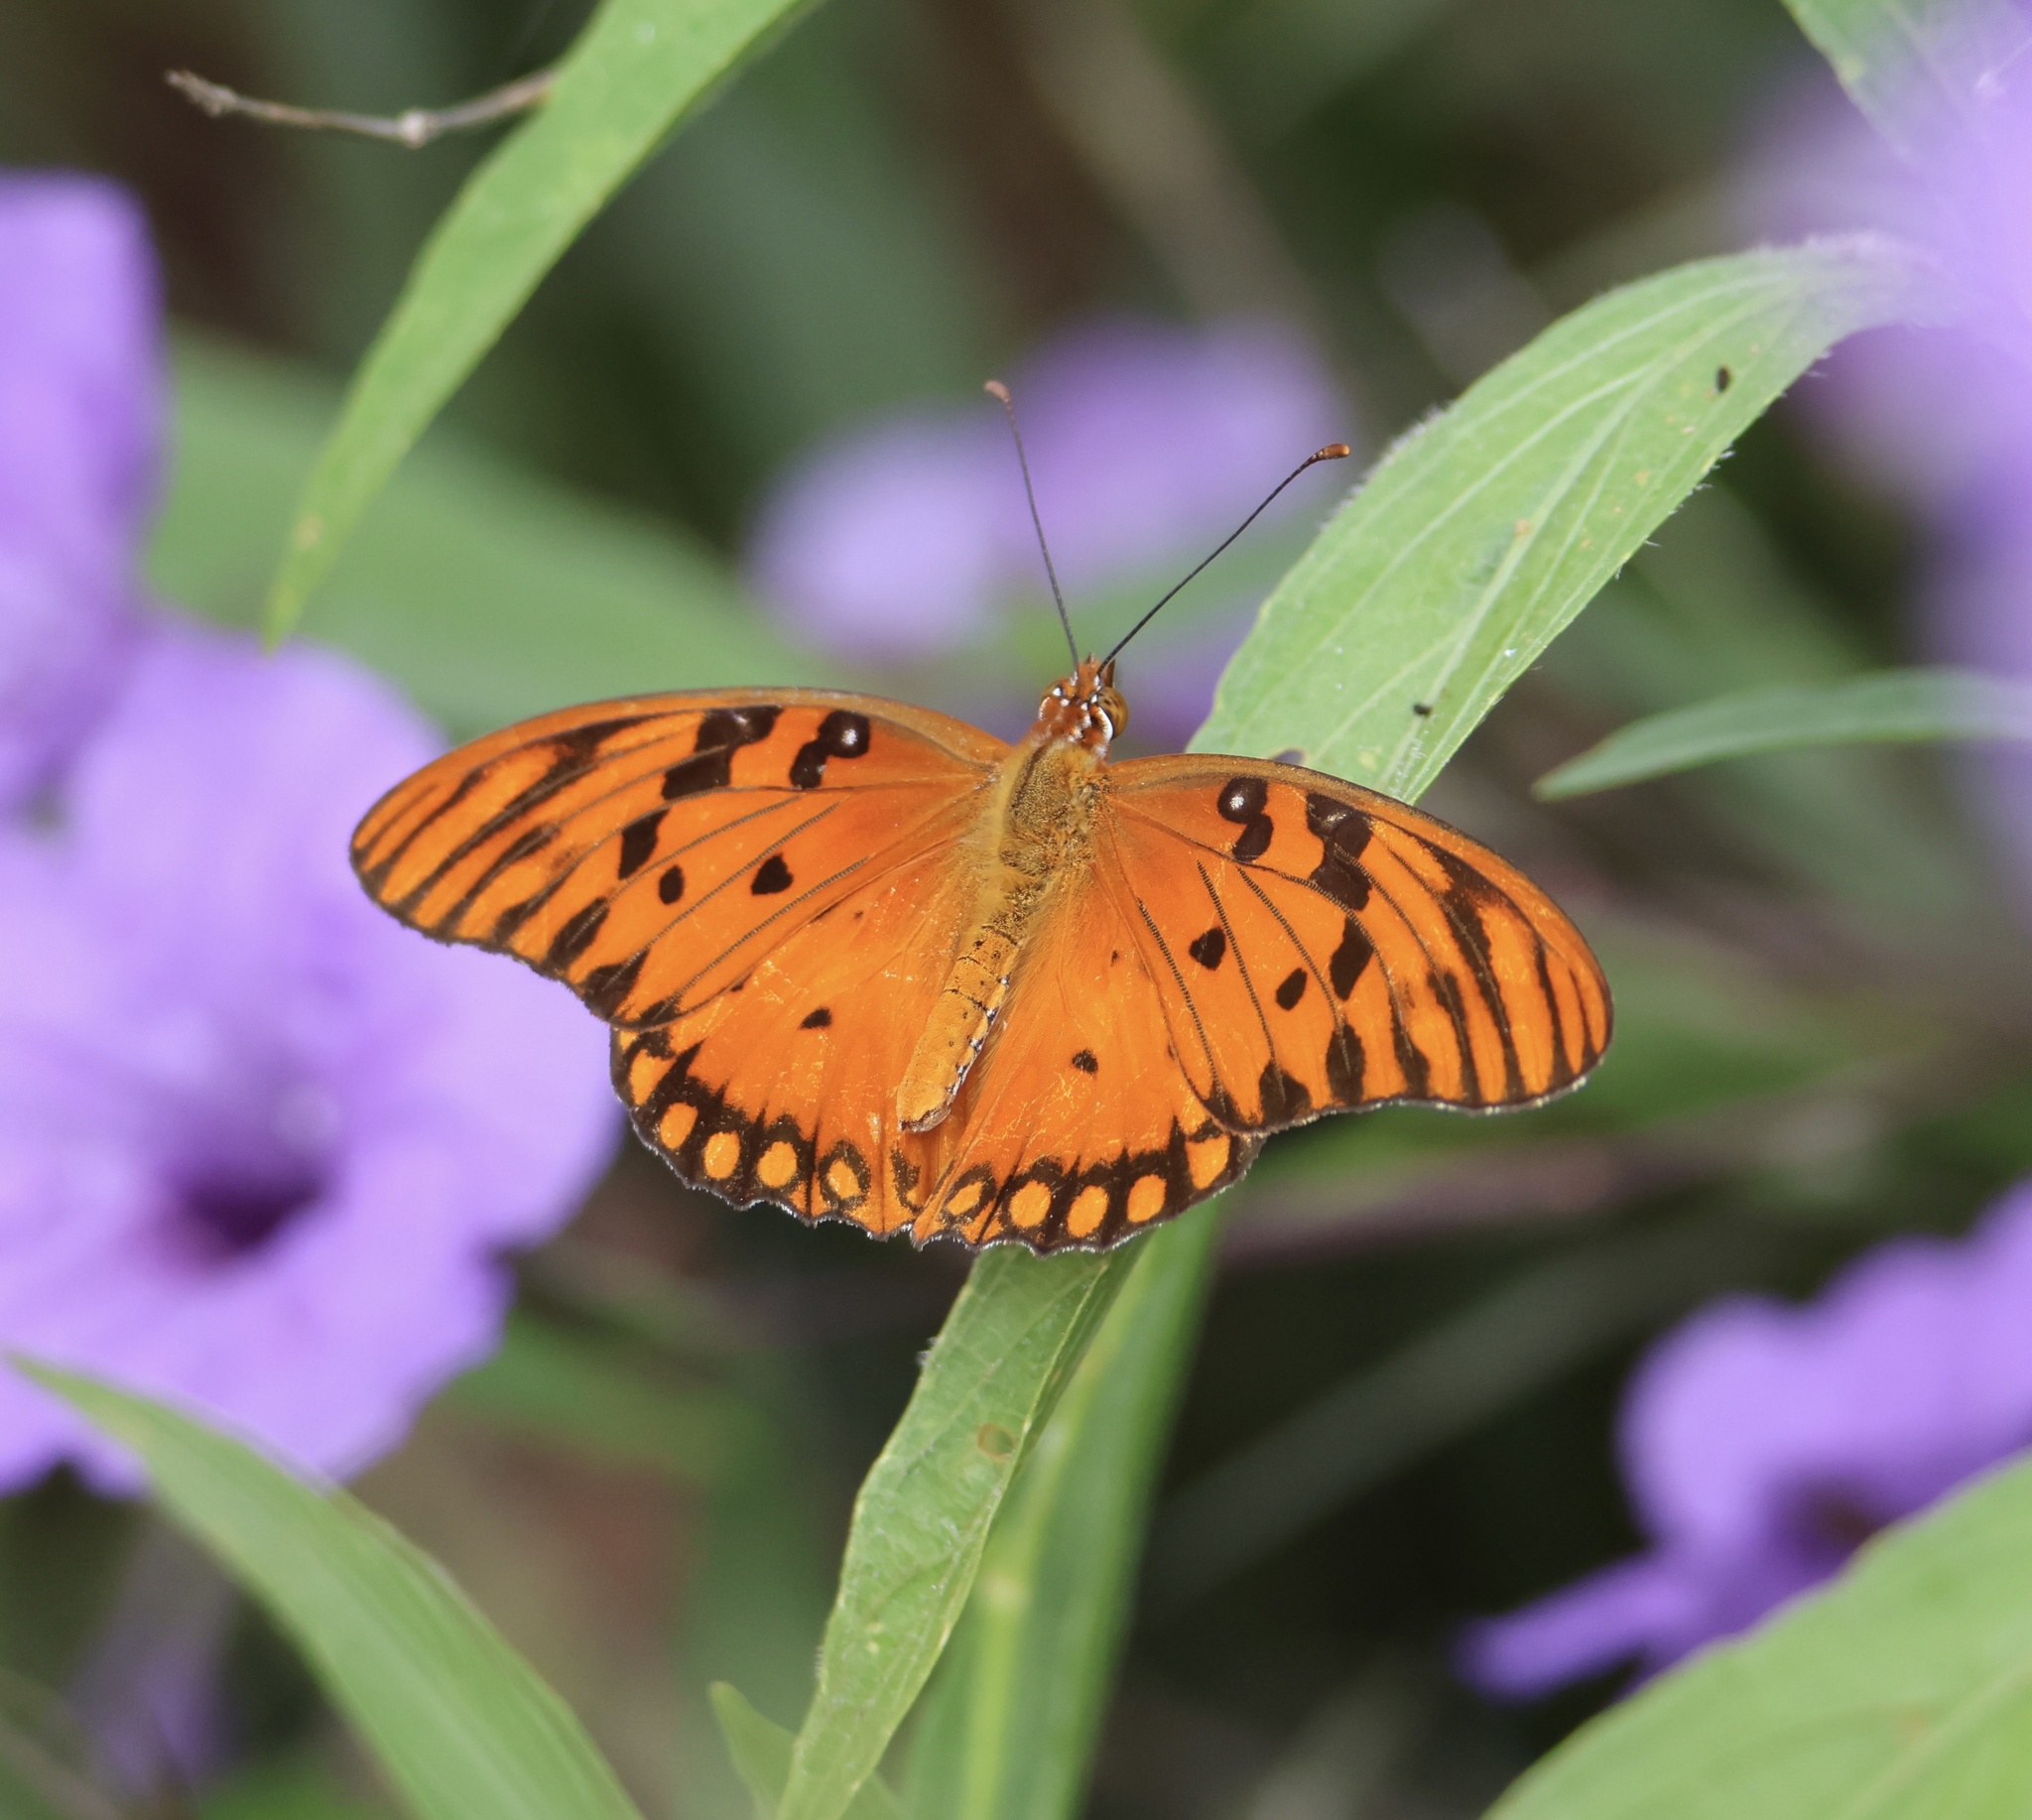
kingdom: Animalia
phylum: Arthropoda
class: Insecta
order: Lepidoptera
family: Nymphalidae
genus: Dione
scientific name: Dione vanillae
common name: Gulf fritillary
